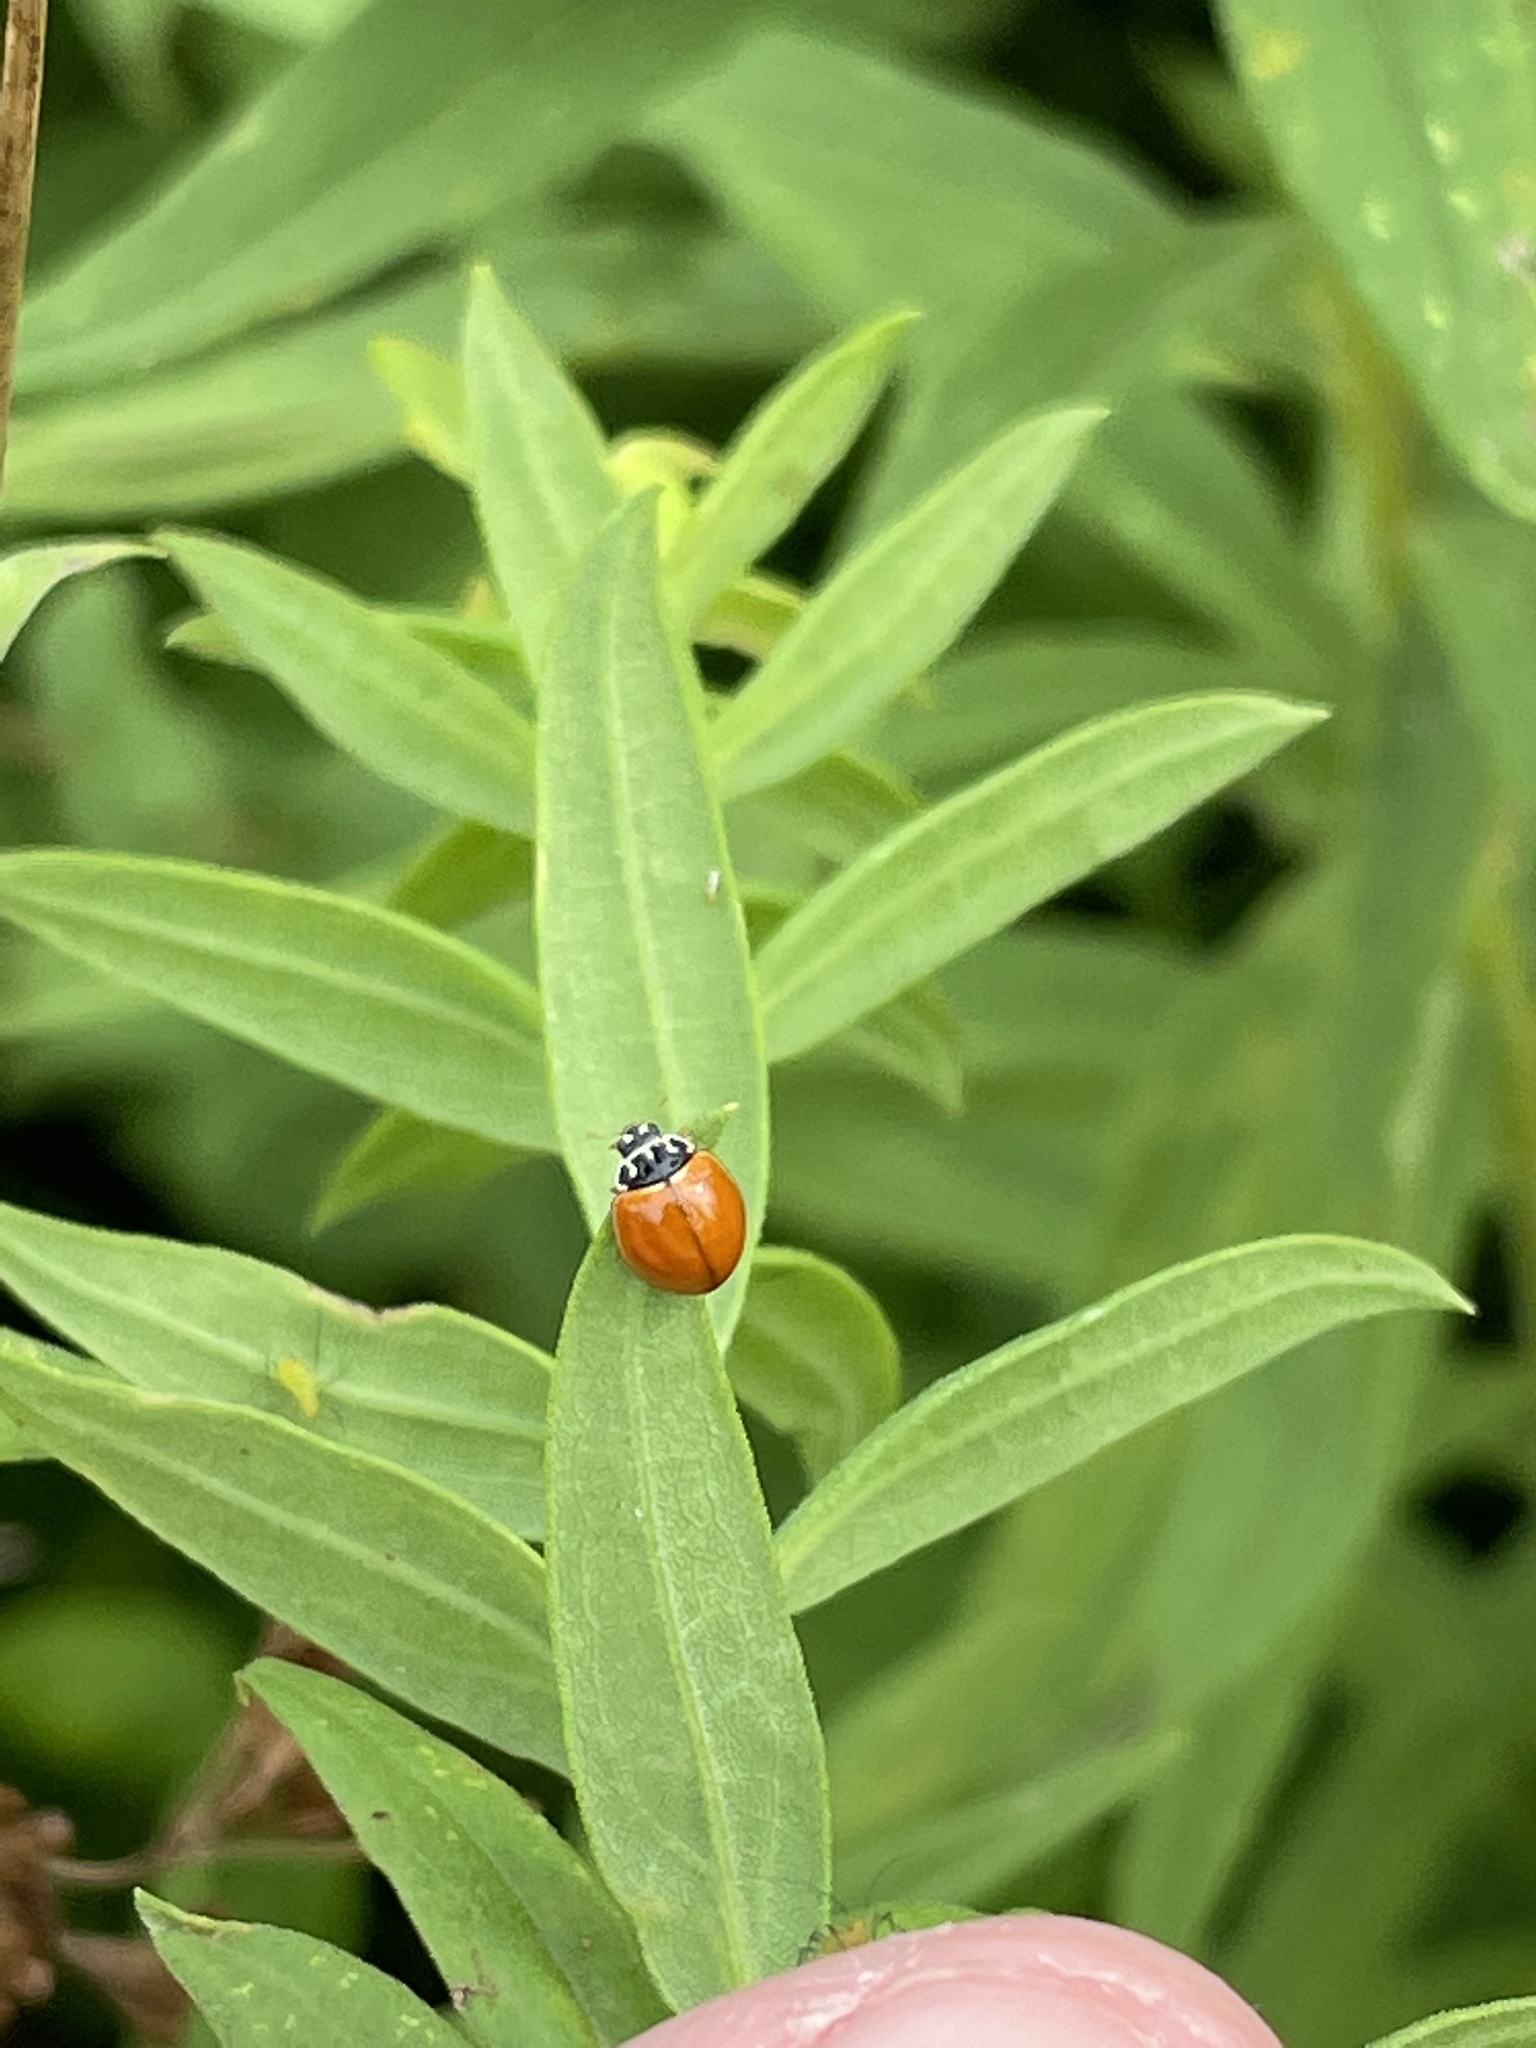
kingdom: Animalia
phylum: Arthropoda
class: Insecta
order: Coleoptera
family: Coccinellidae
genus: Cycloneda
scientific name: Cycloneda munda
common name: Polished lady beetle
